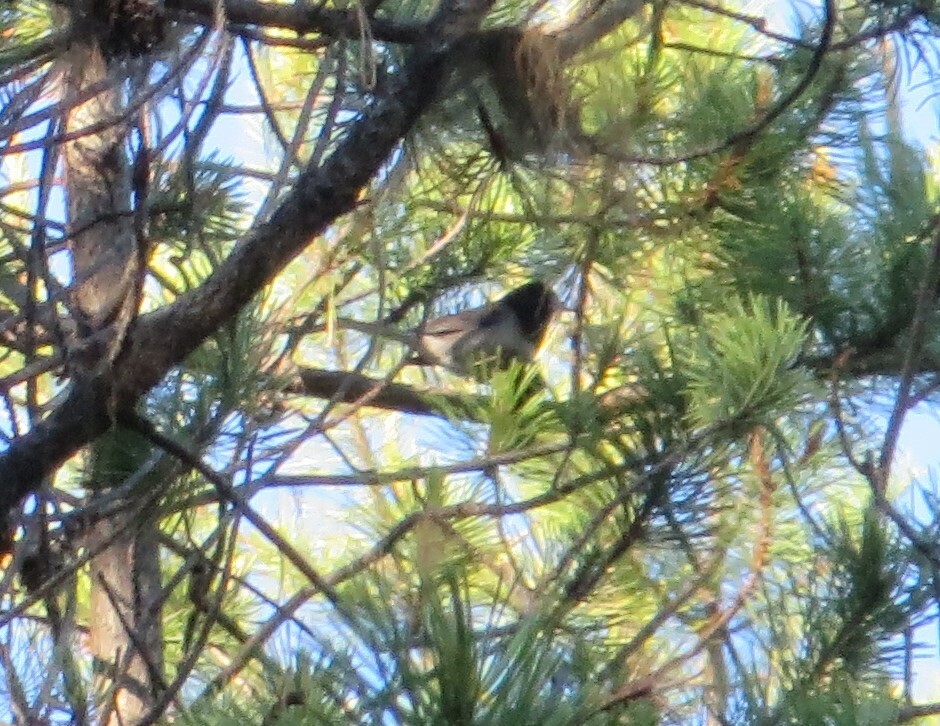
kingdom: Animalia
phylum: Chordata
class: Aves
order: Passeriformes
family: Passerellidae
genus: Junco
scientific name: Junco hyemalis
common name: Dark-eyed junco
